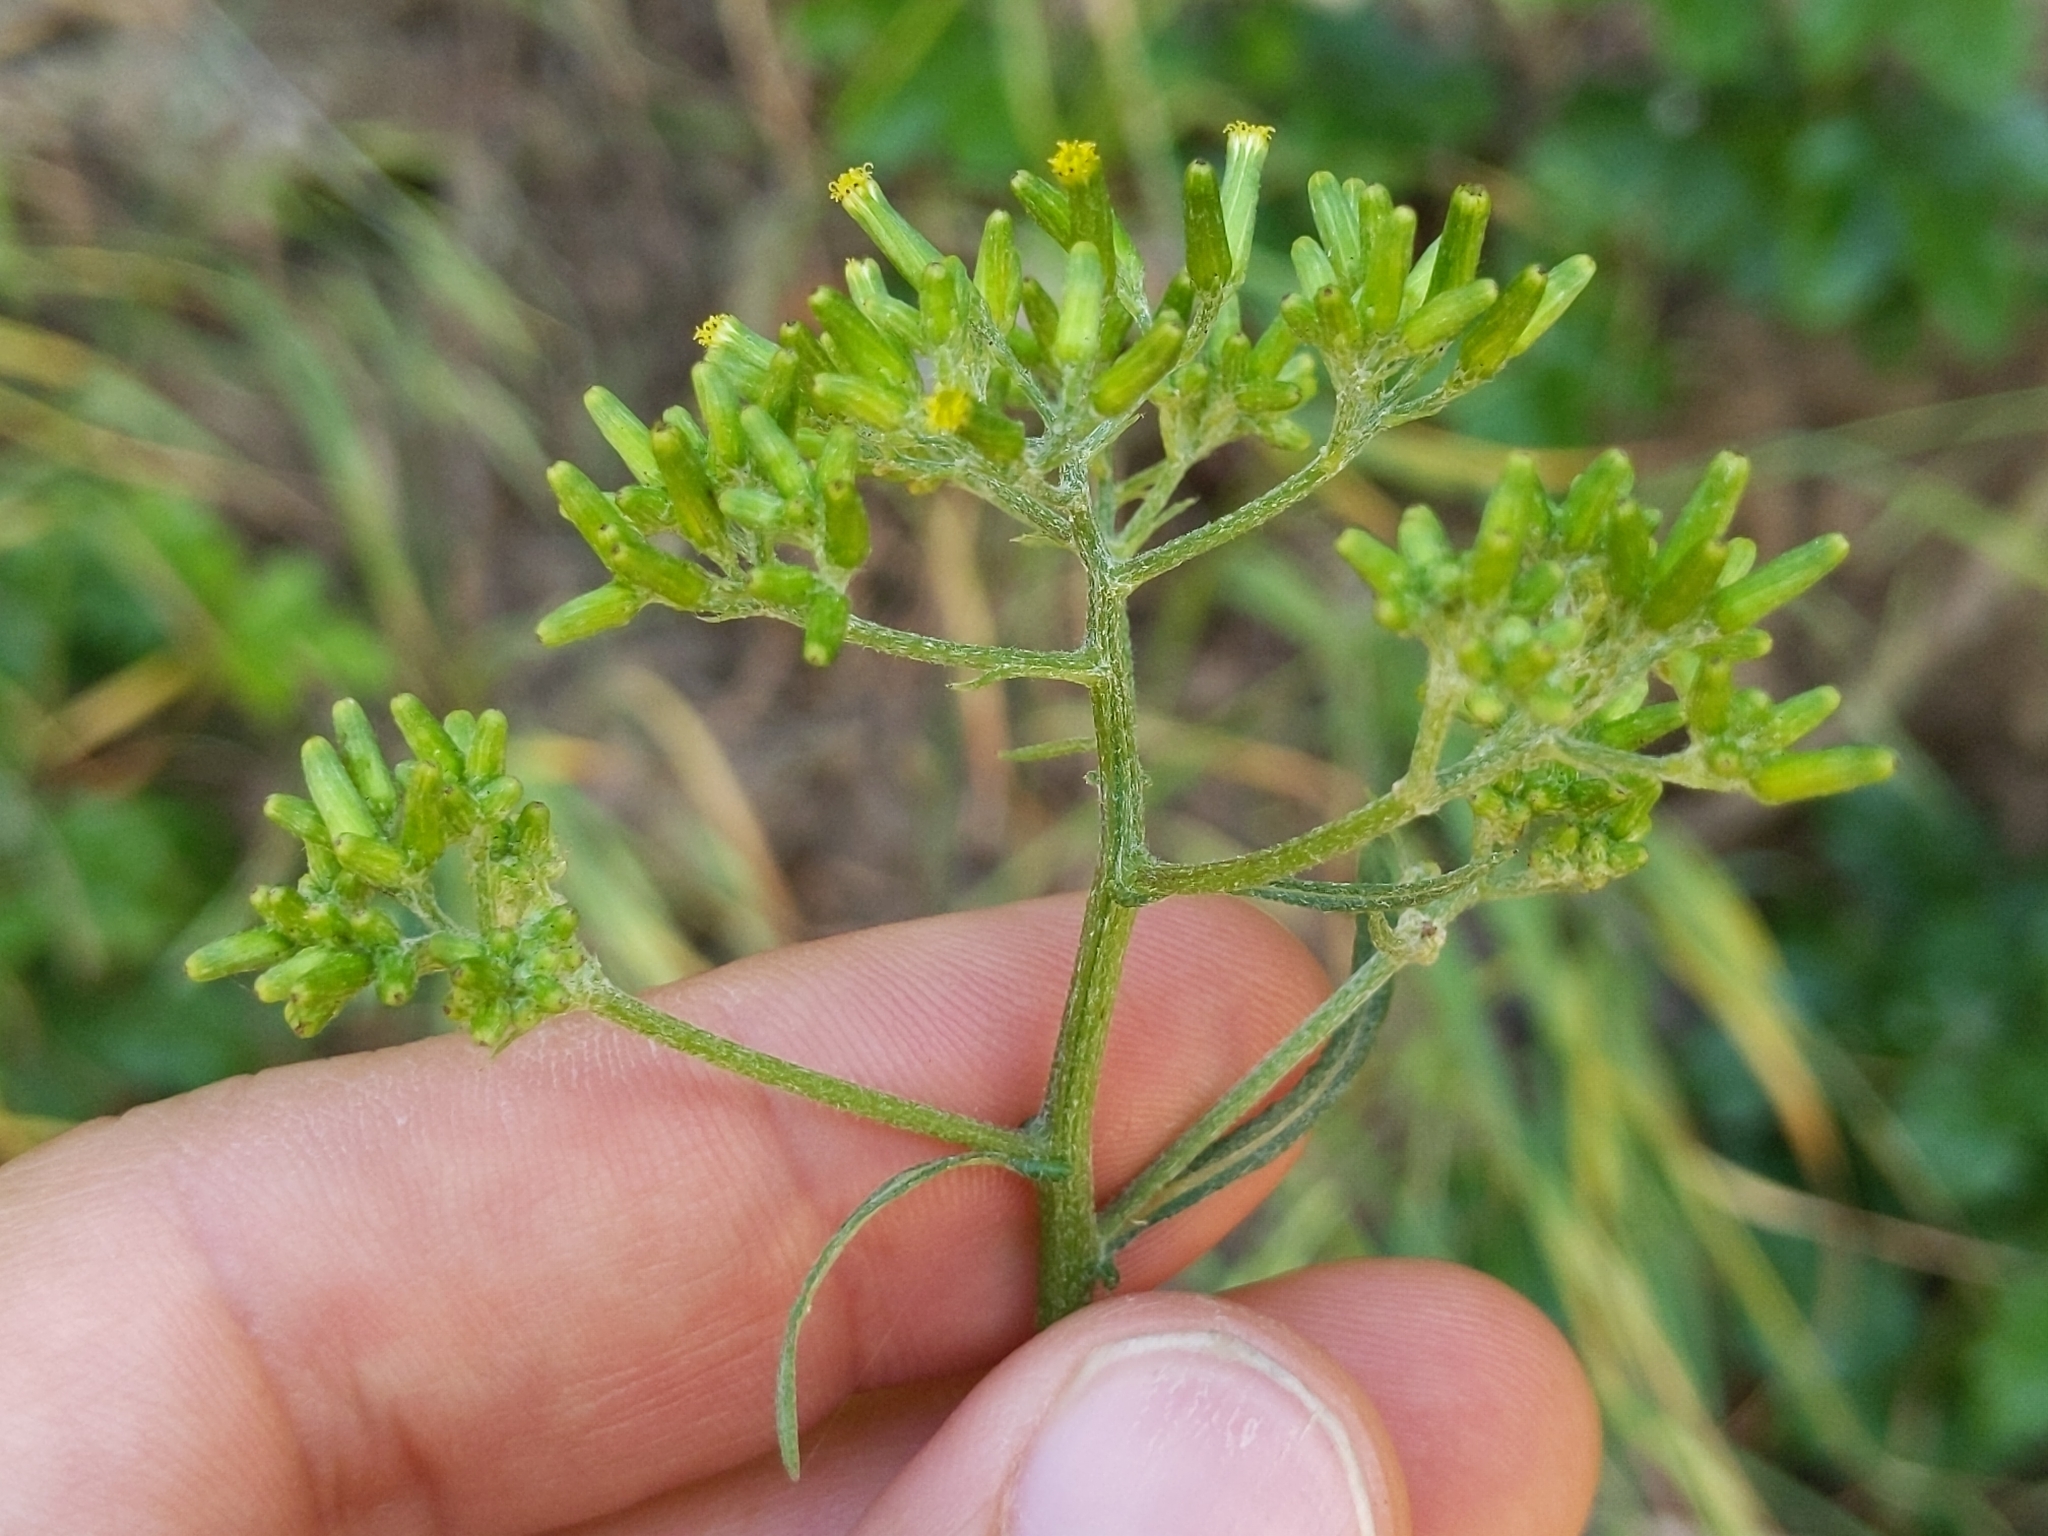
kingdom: Plantae
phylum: Tracheophyta
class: Magnoliopsida
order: Asterales
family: Asteraceae
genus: Senecio
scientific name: Senecio minimus
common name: Toothed fireweed
